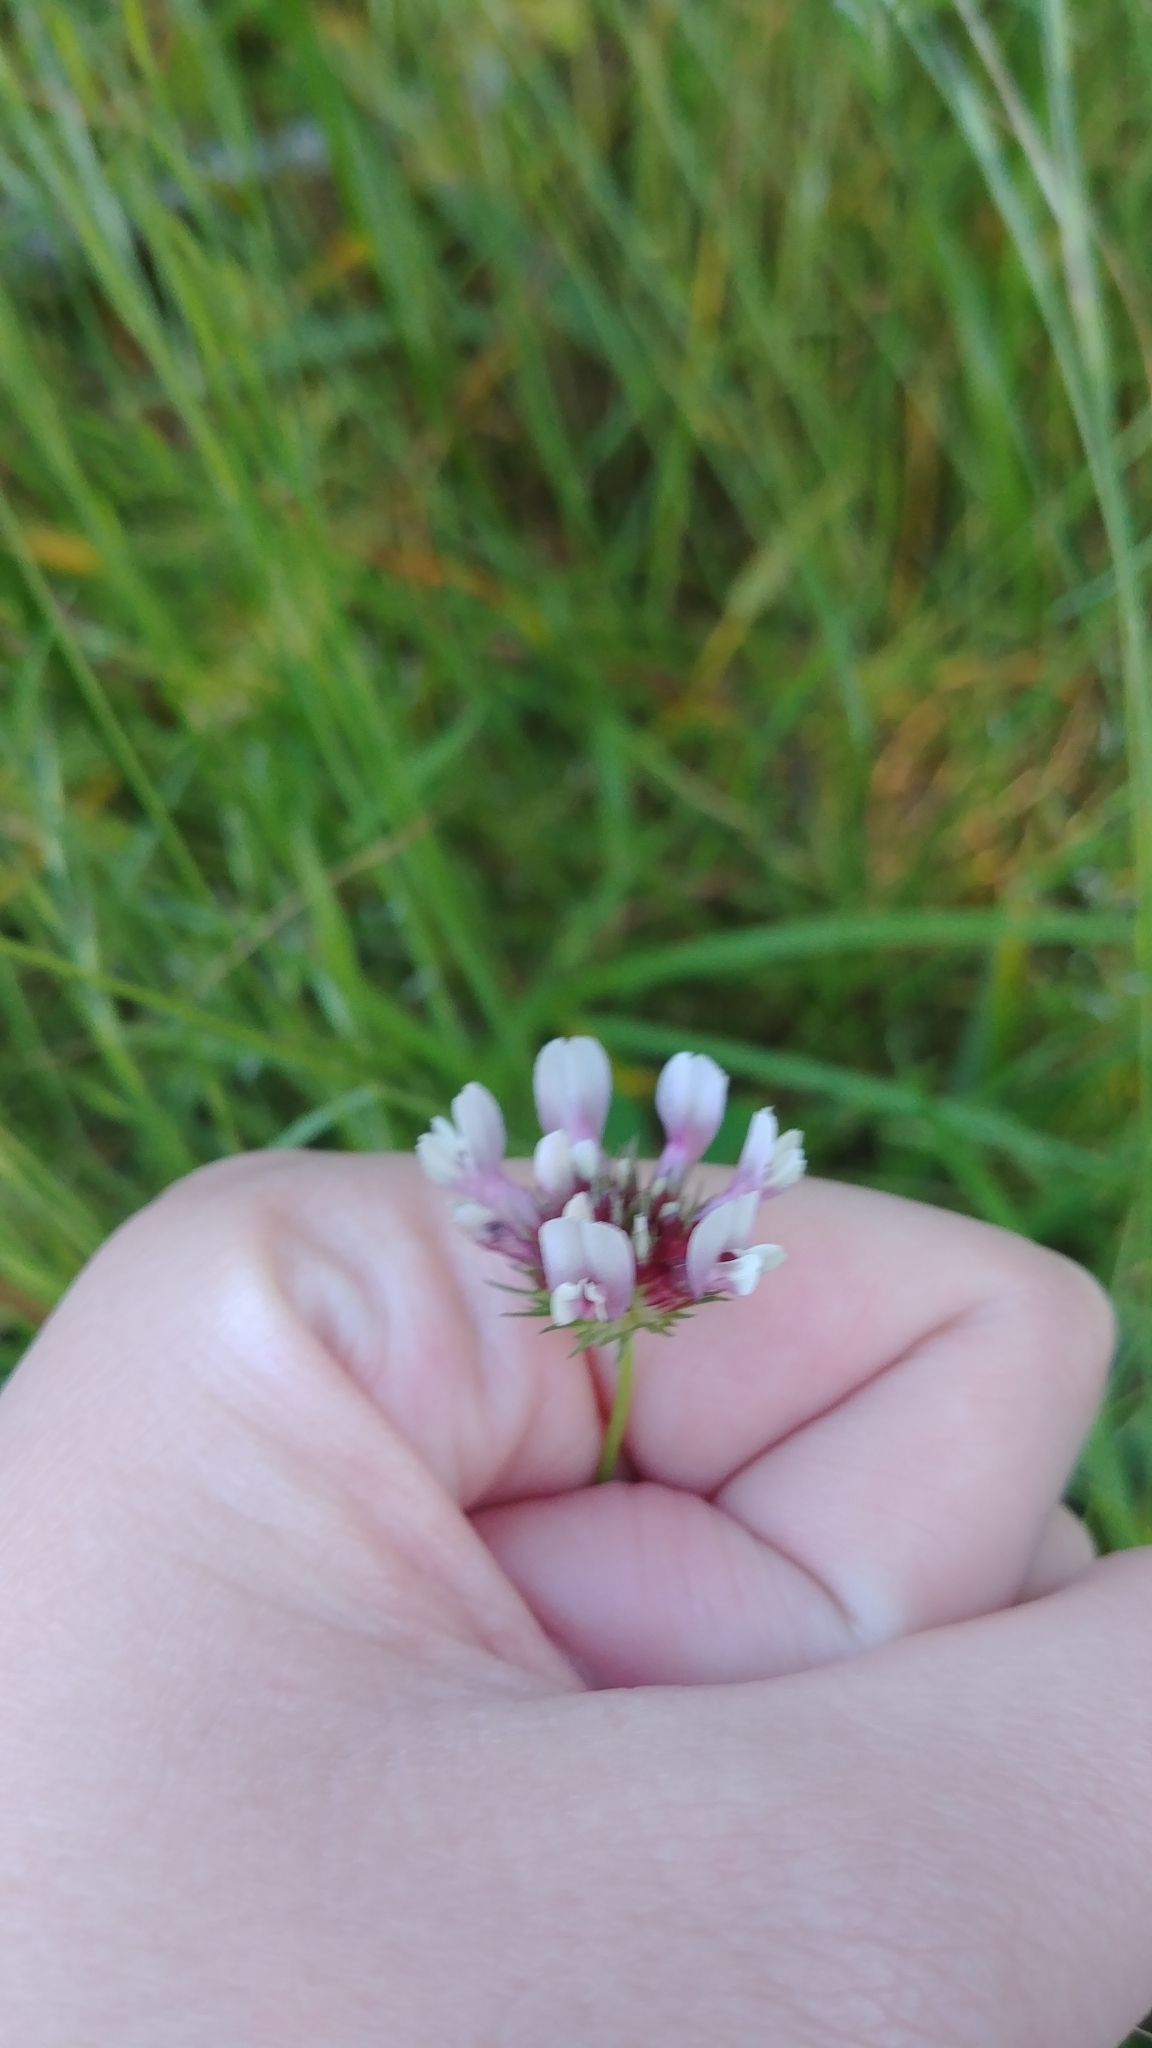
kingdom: Plantae
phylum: Tracheophyta
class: Magnoliopsida
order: Fabales
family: Fabaceae
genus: Trifolium
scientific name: Trifolium willdenovii
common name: Tomcat clover
